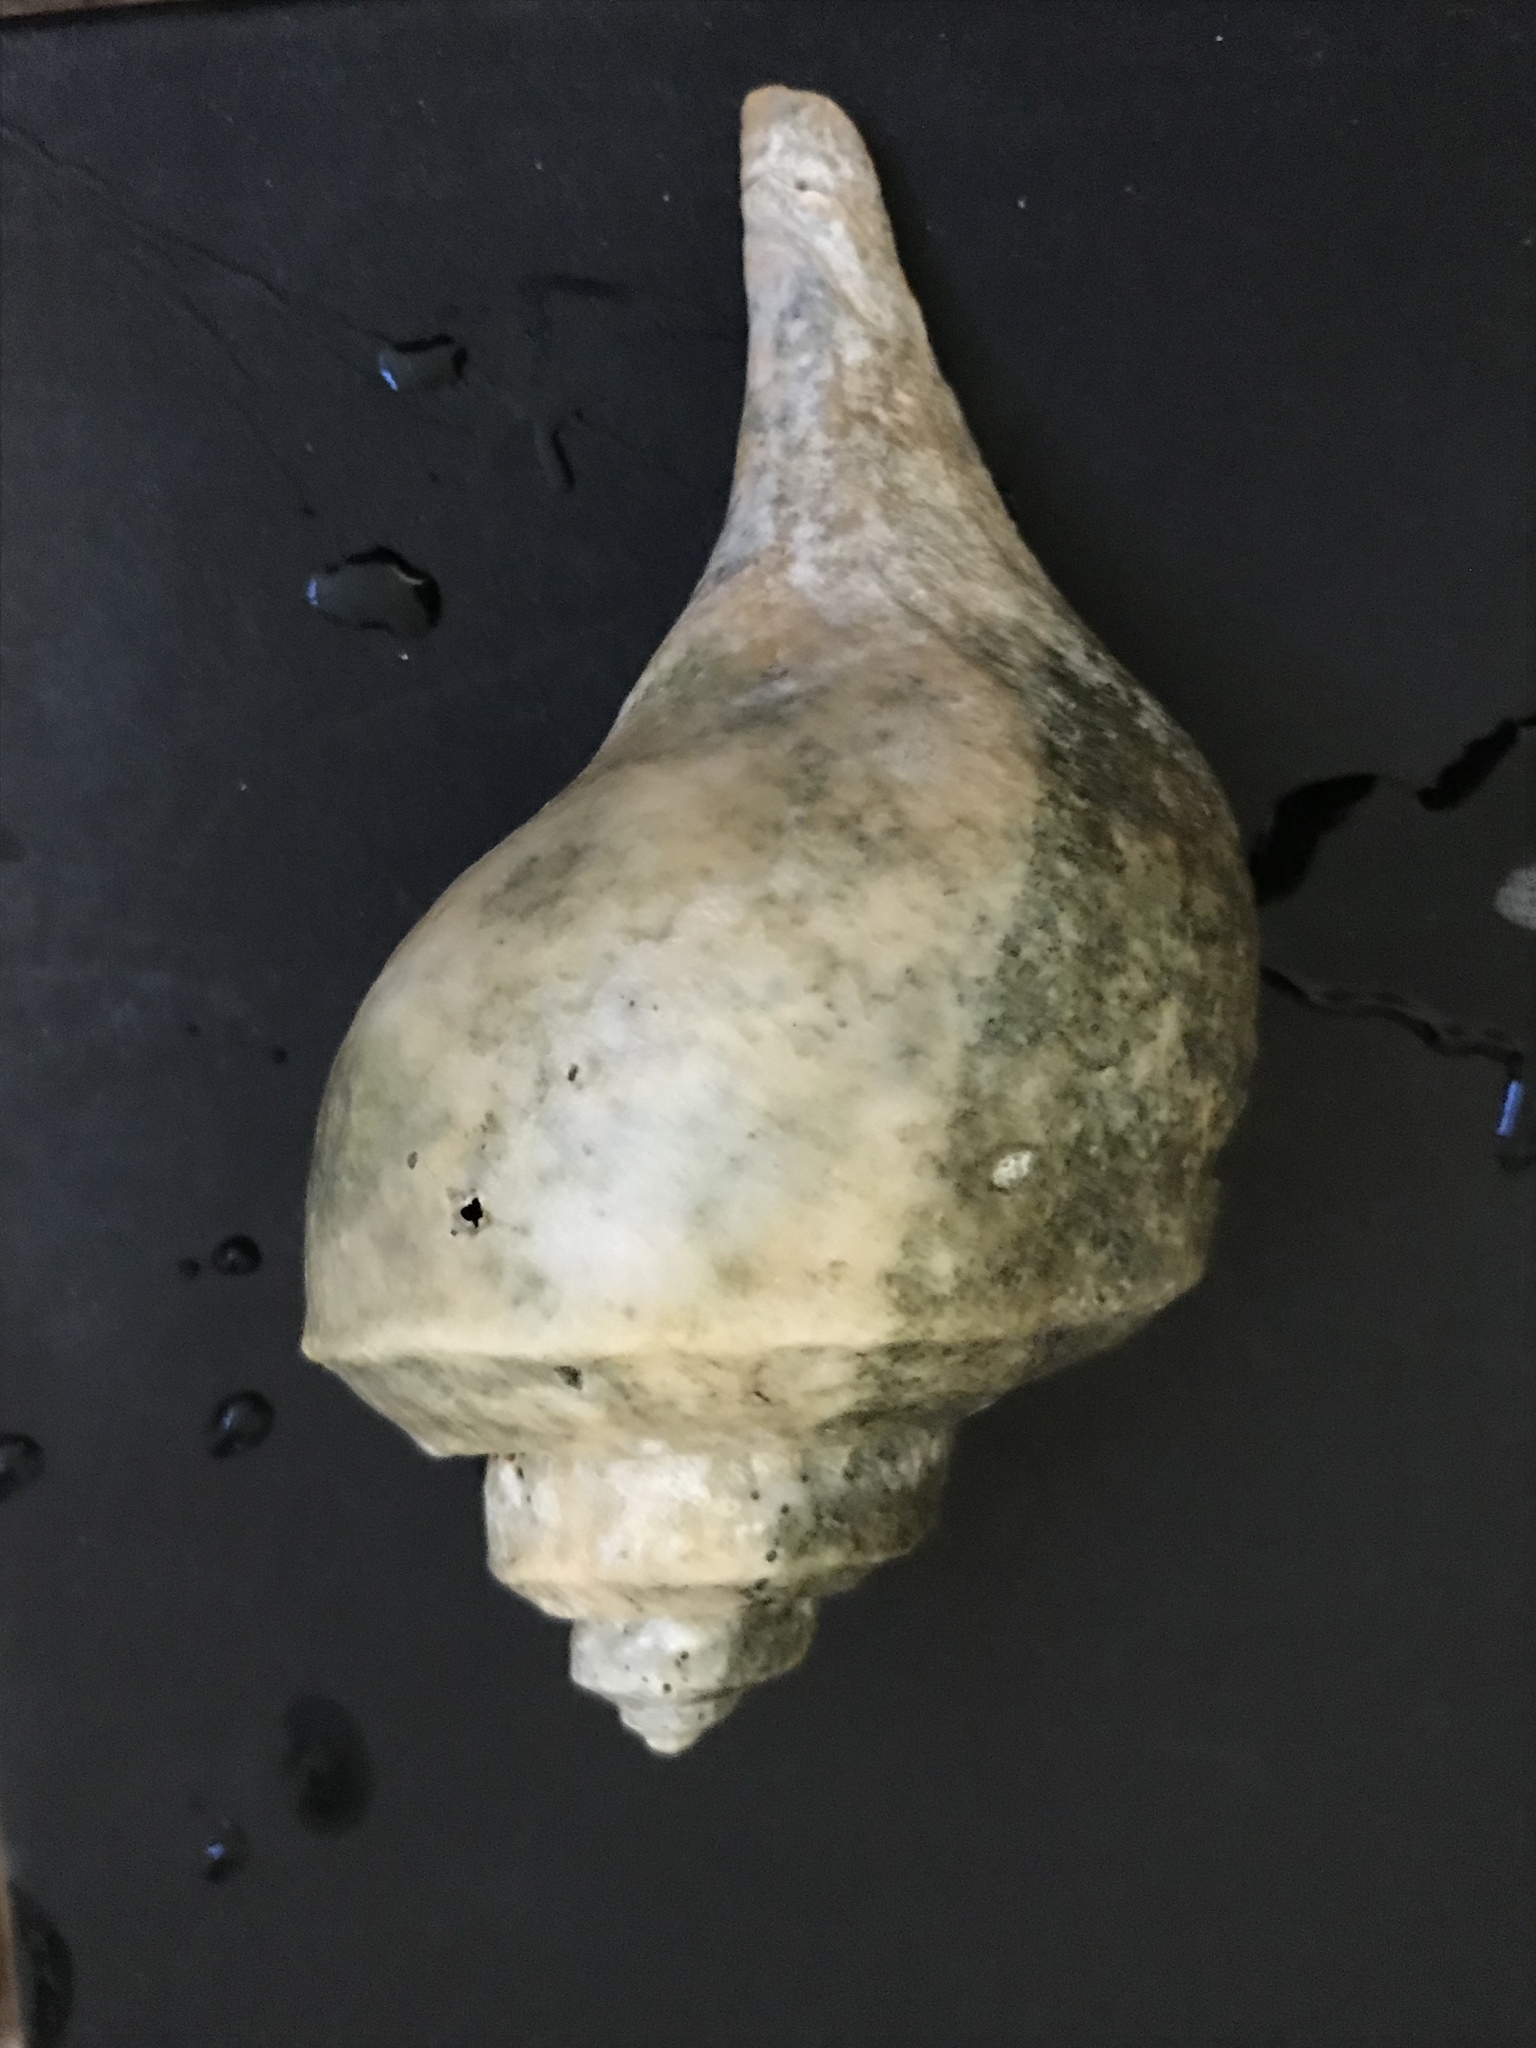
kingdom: Animalia
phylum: Mollusca
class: Gastropoda
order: Neogastropoda
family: Busyconidae
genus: Busycotypus
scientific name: Busycotypus canaliculatus
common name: Channeled whelk
